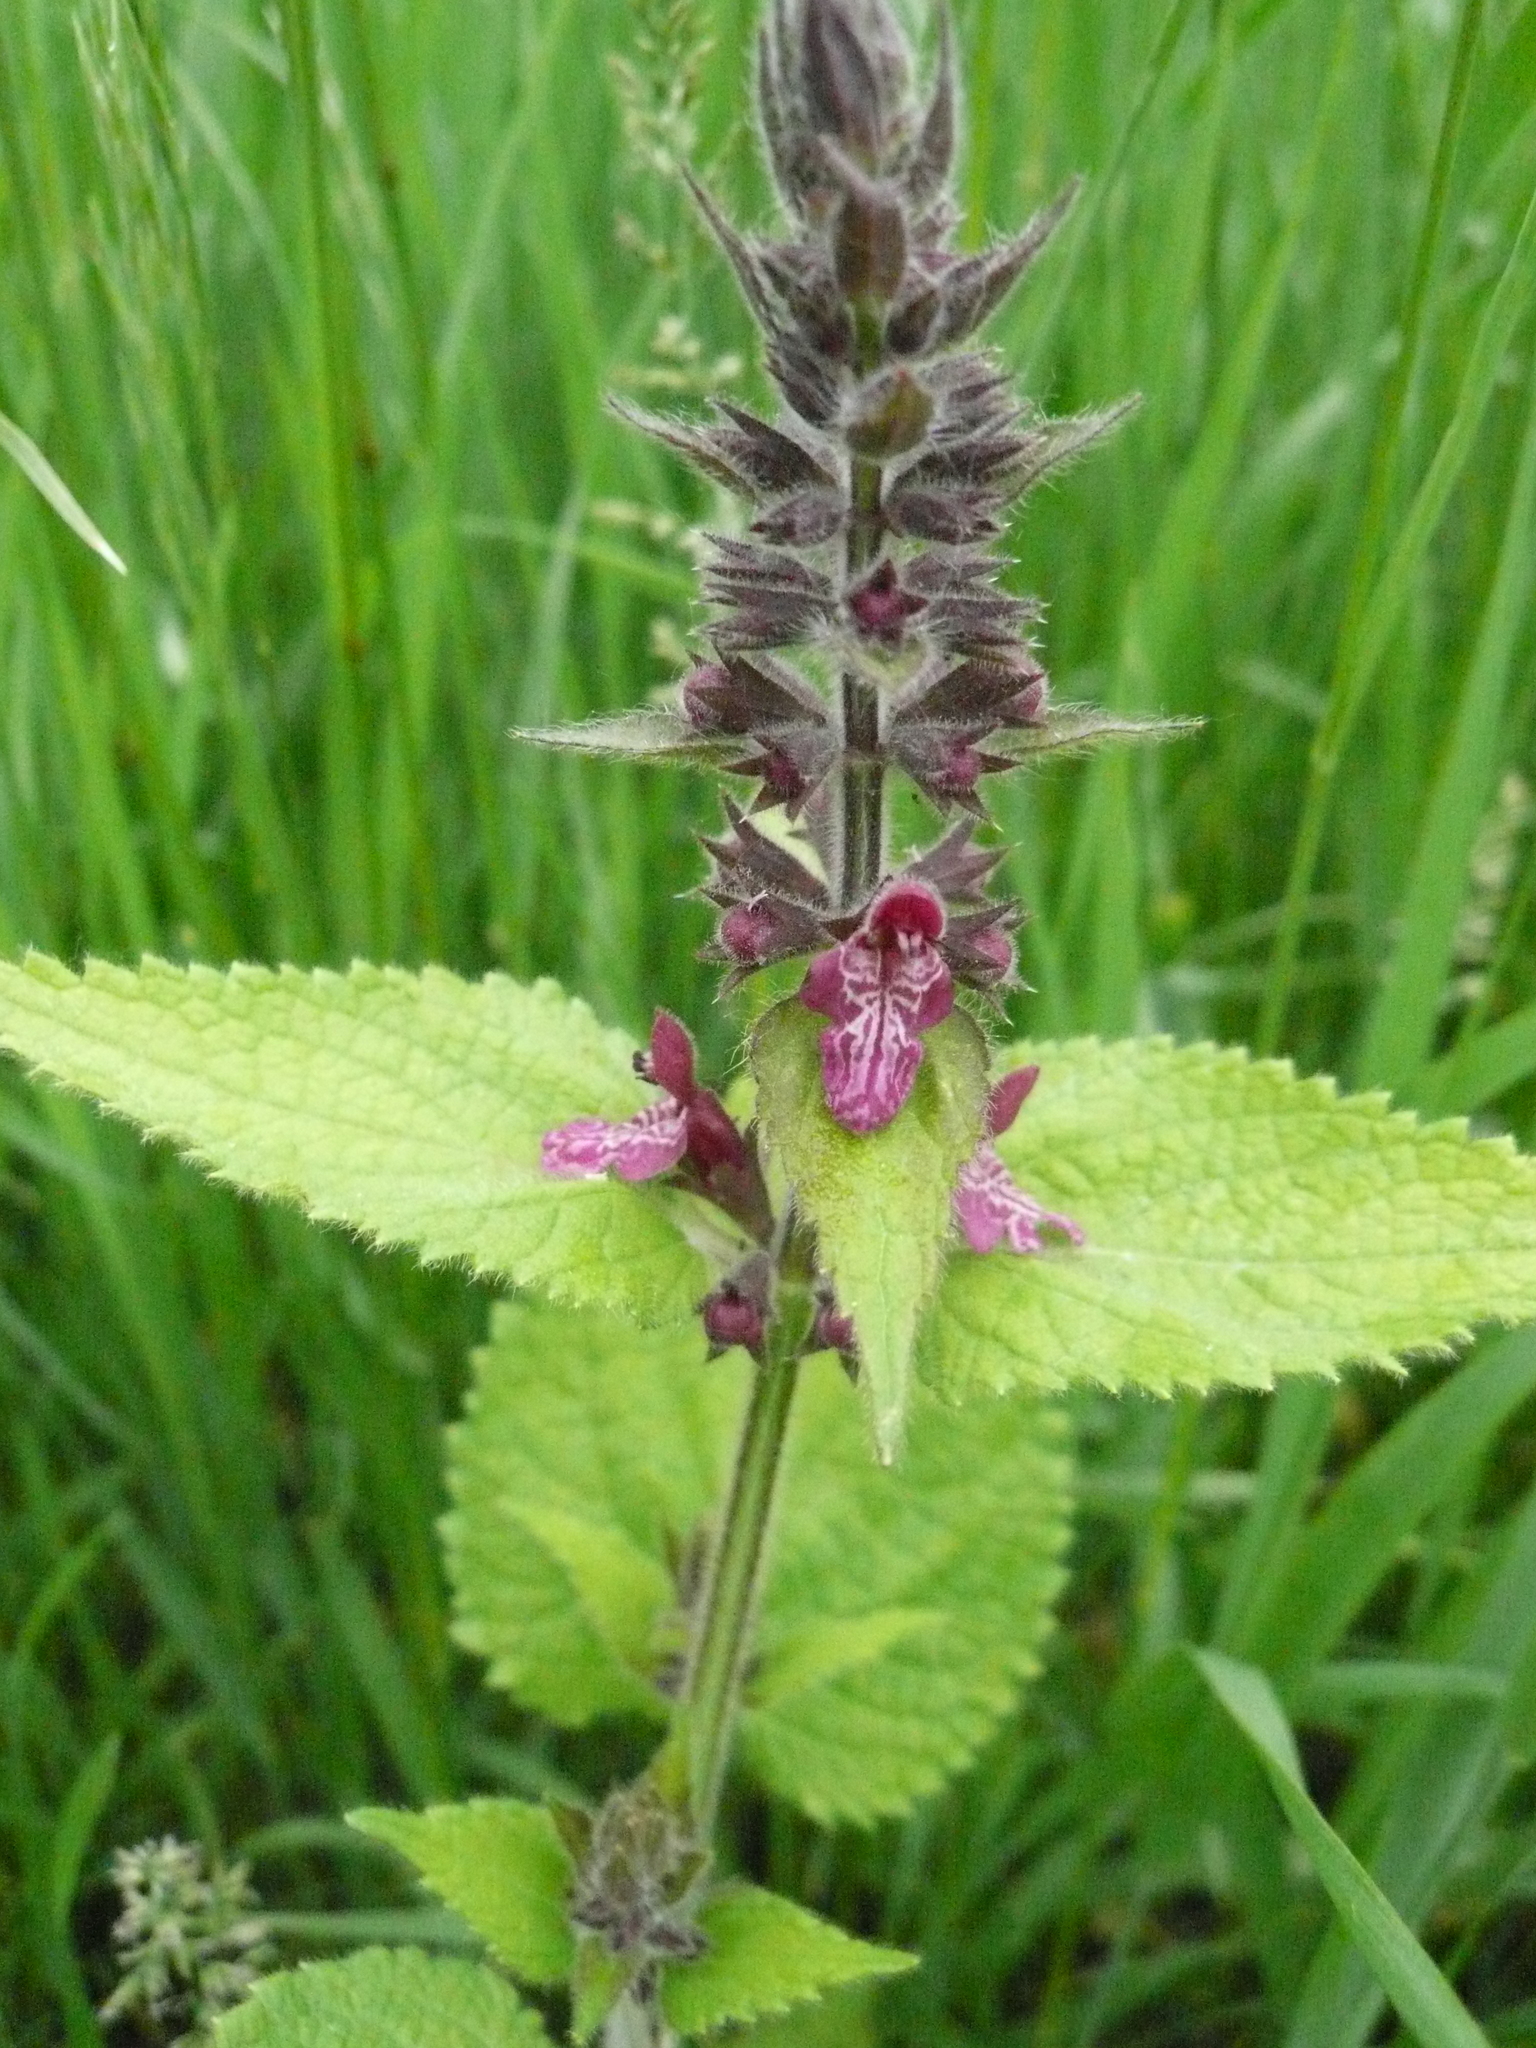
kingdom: Plantae
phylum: Tracheophyta
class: Magnoliopsida
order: Lamiales
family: Lamiaceae
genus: Stachys
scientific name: Stachys sylvatica
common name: Hedge woundwort
